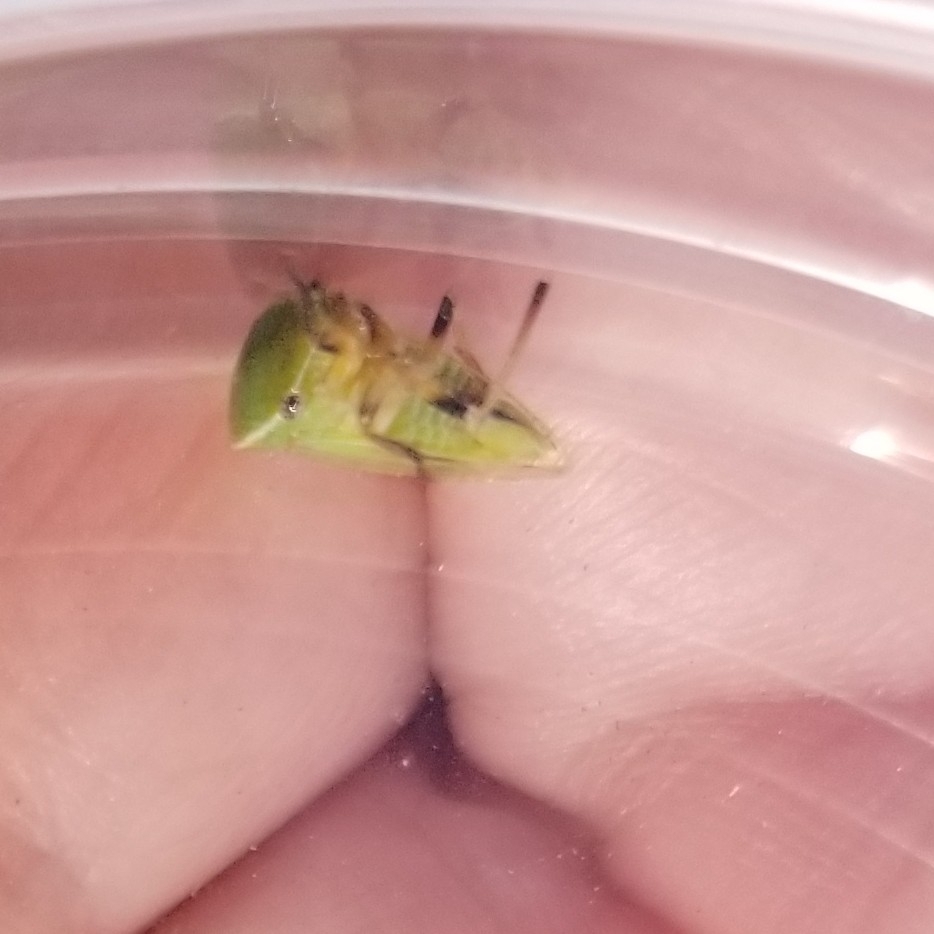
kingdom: Animalia
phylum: Arthropoda
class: Insecta
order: Hemiptera
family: Membracidae
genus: Tortistilus
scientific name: Tortistilus inermis
